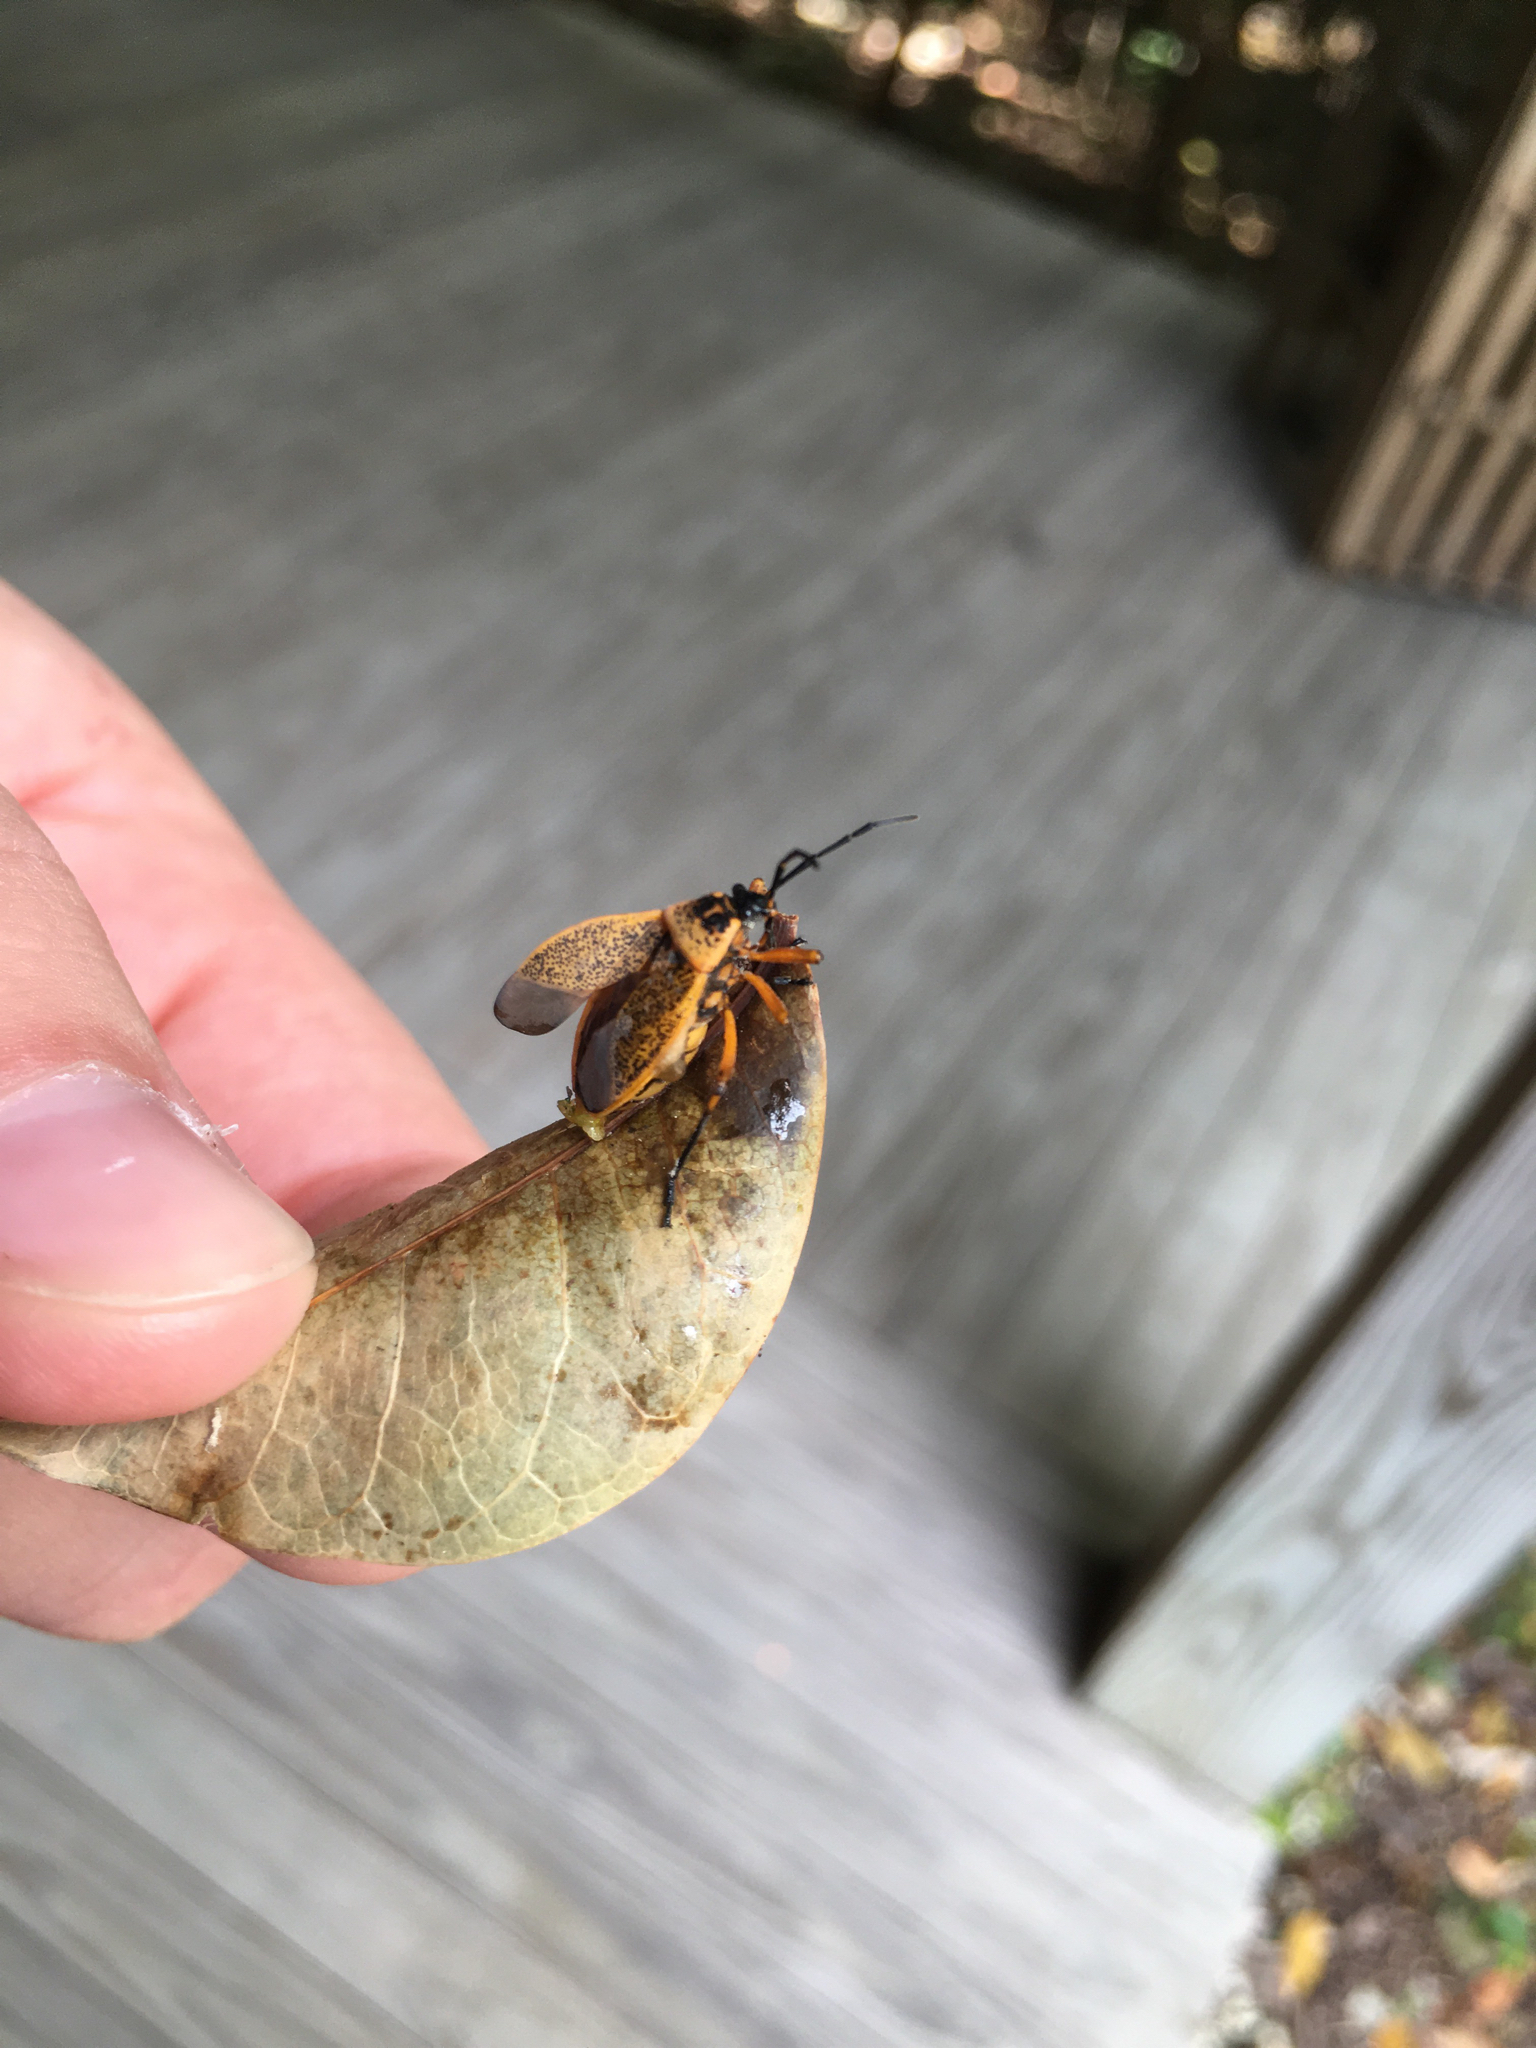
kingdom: Animalia
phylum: Arthropoda
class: Insecta
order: Hemiptera
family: Largidae
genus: Largus
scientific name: Largus davisi
